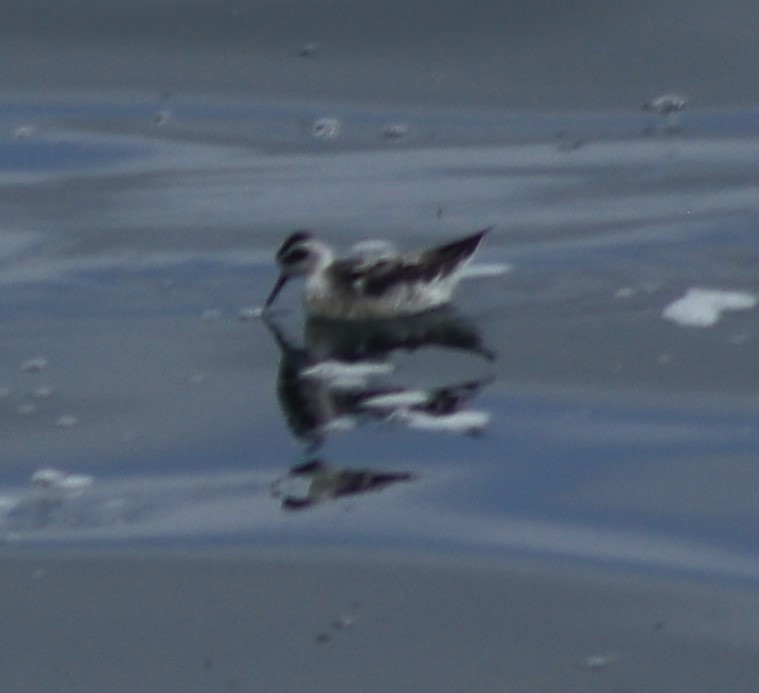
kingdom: Animalia
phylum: Chordata
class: Aves
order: Charadriiformes
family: Scolopacidae
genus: Phalaropus
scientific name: Phalaropus lobatus
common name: Red-necked phalarope
